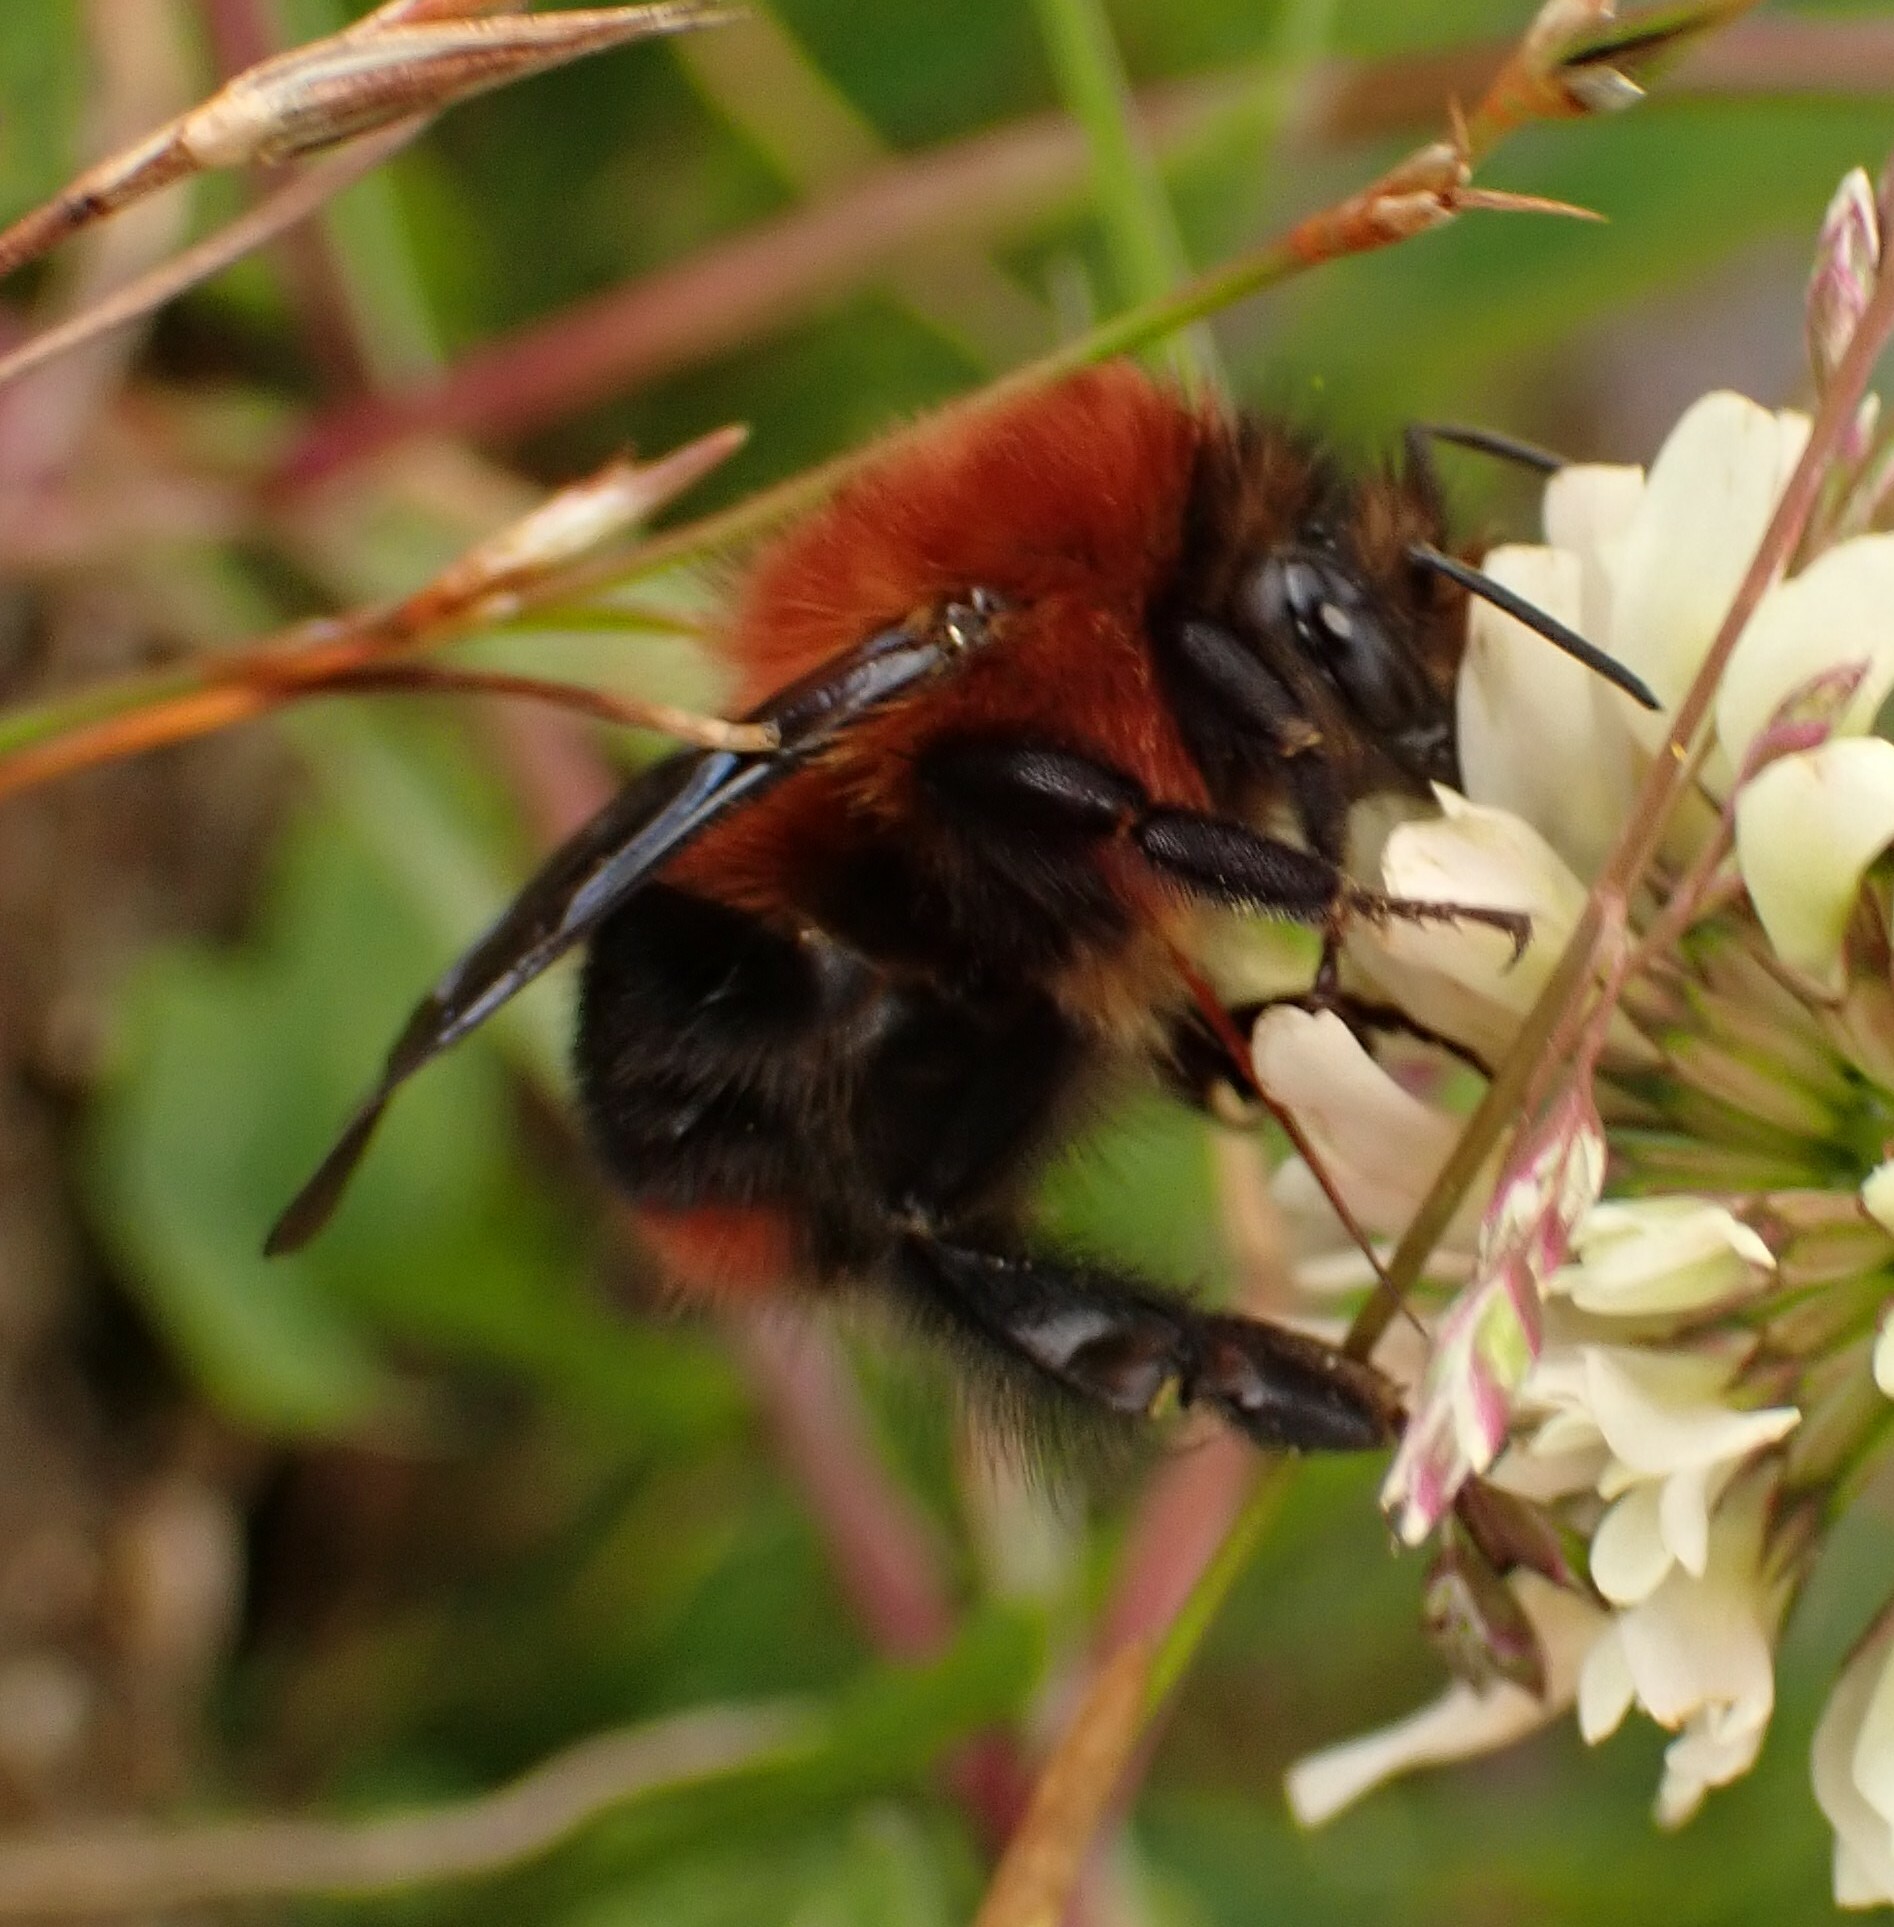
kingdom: Animalia
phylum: Arthropoda
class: Insecta
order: Hymenoptera
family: Apidae
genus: Bombus
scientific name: Bombus rubicundus
